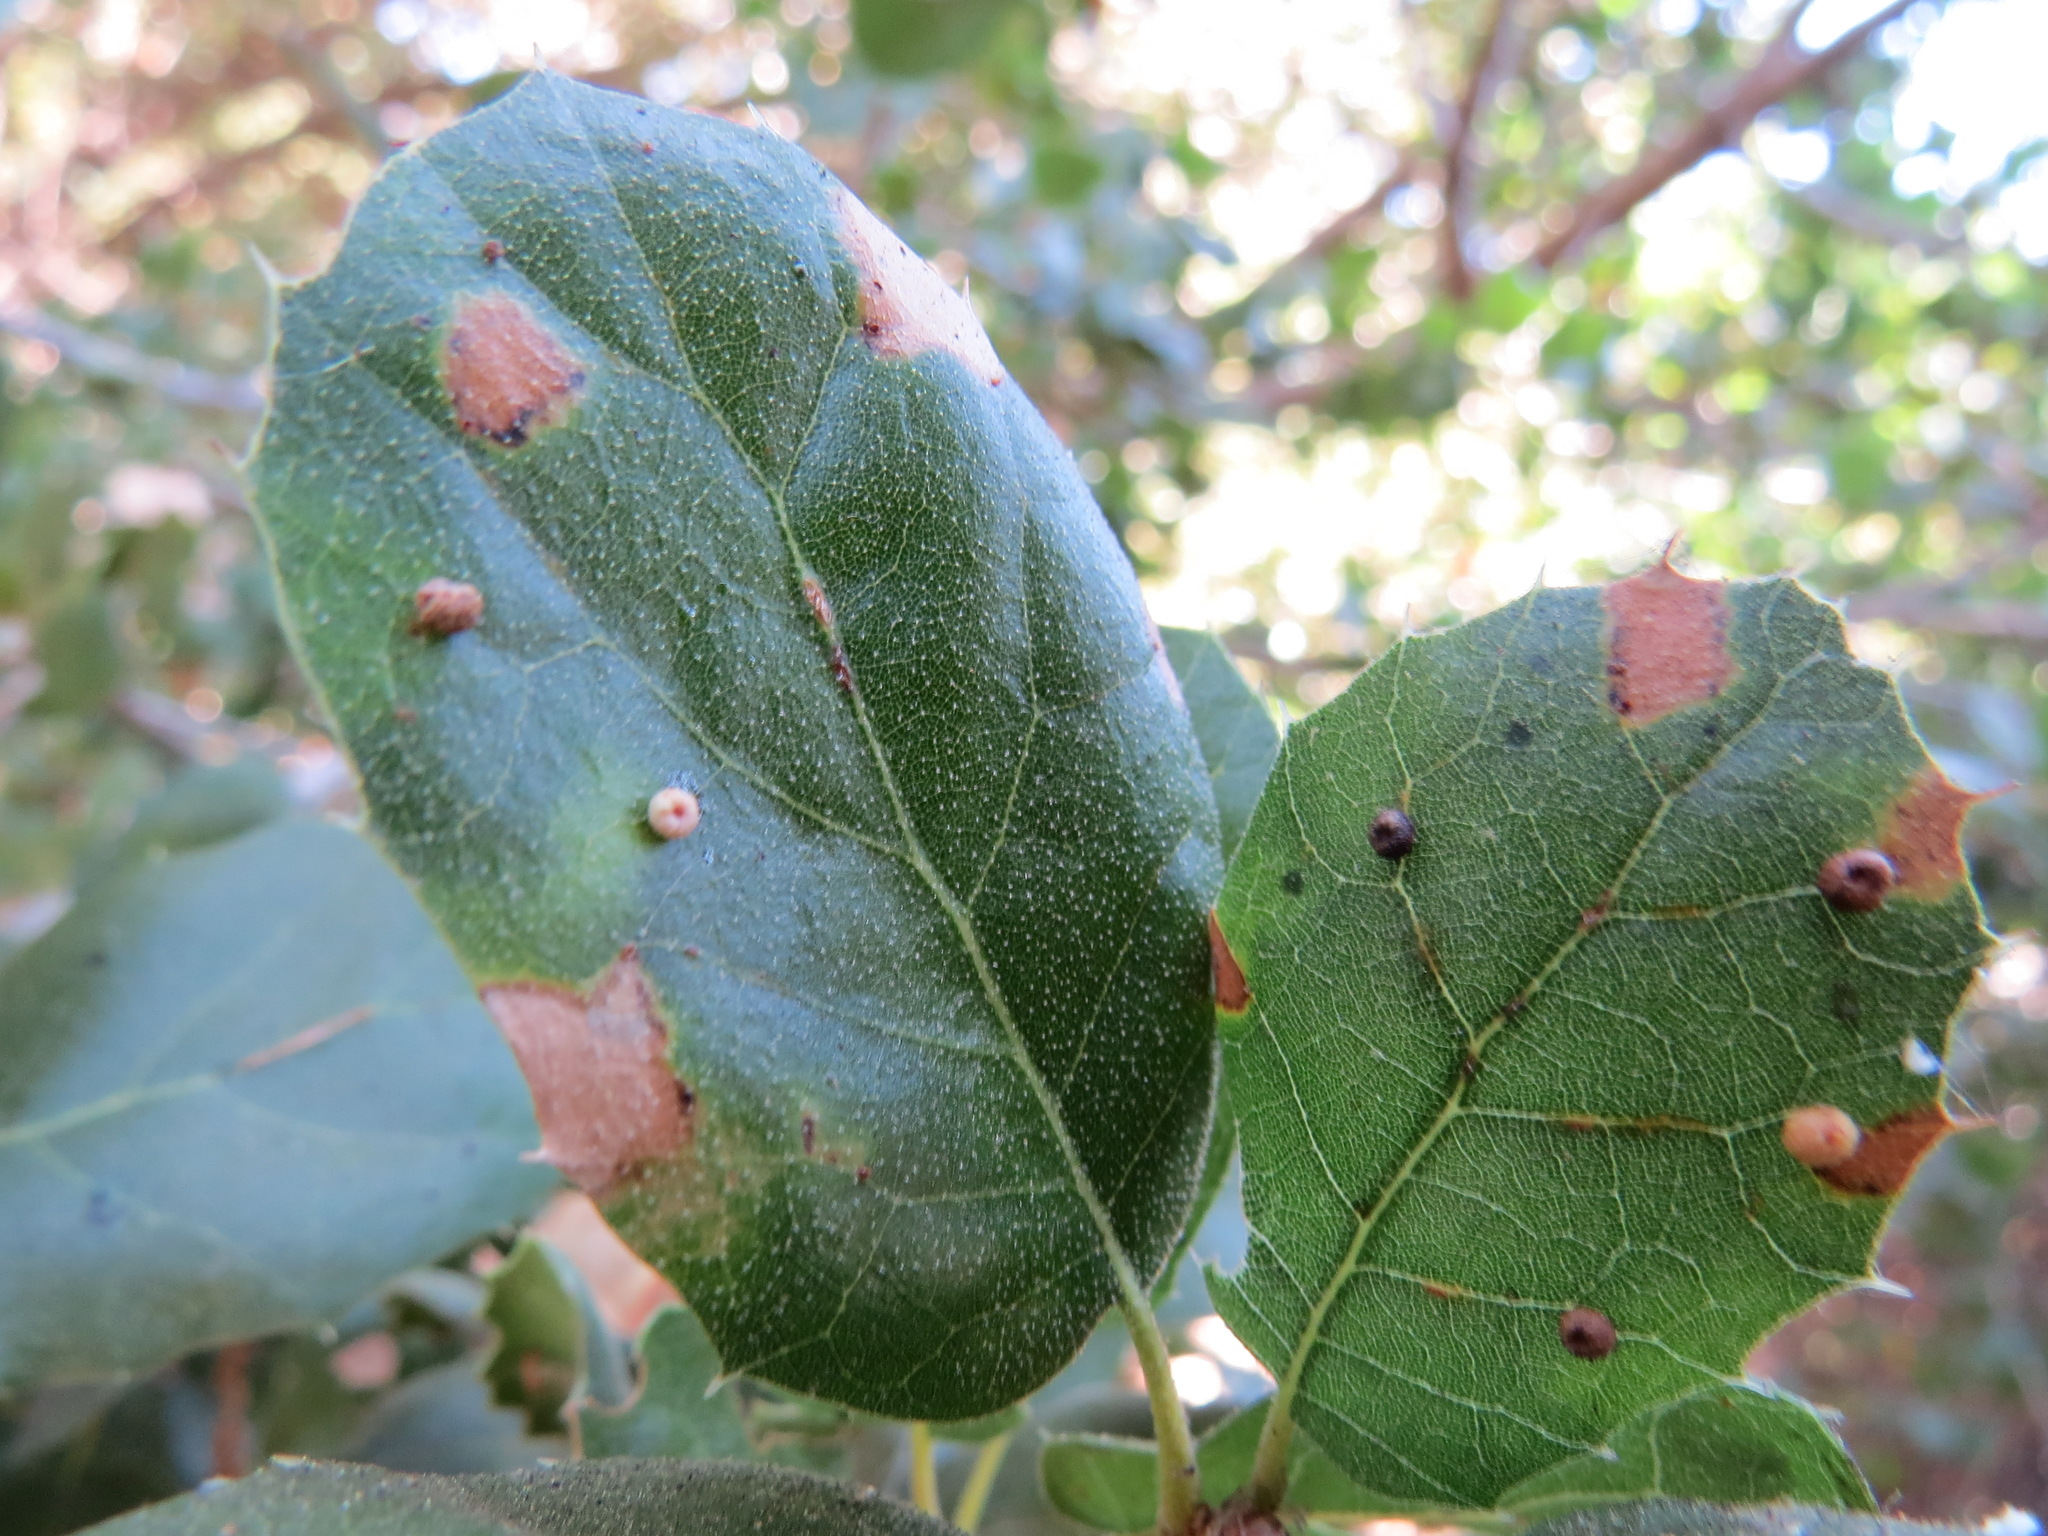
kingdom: Animalia
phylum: Arthropoda
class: Insecta
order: Hymenoptera
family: Cynipidae
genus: Dryocosmus
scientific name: Dryocosmus
